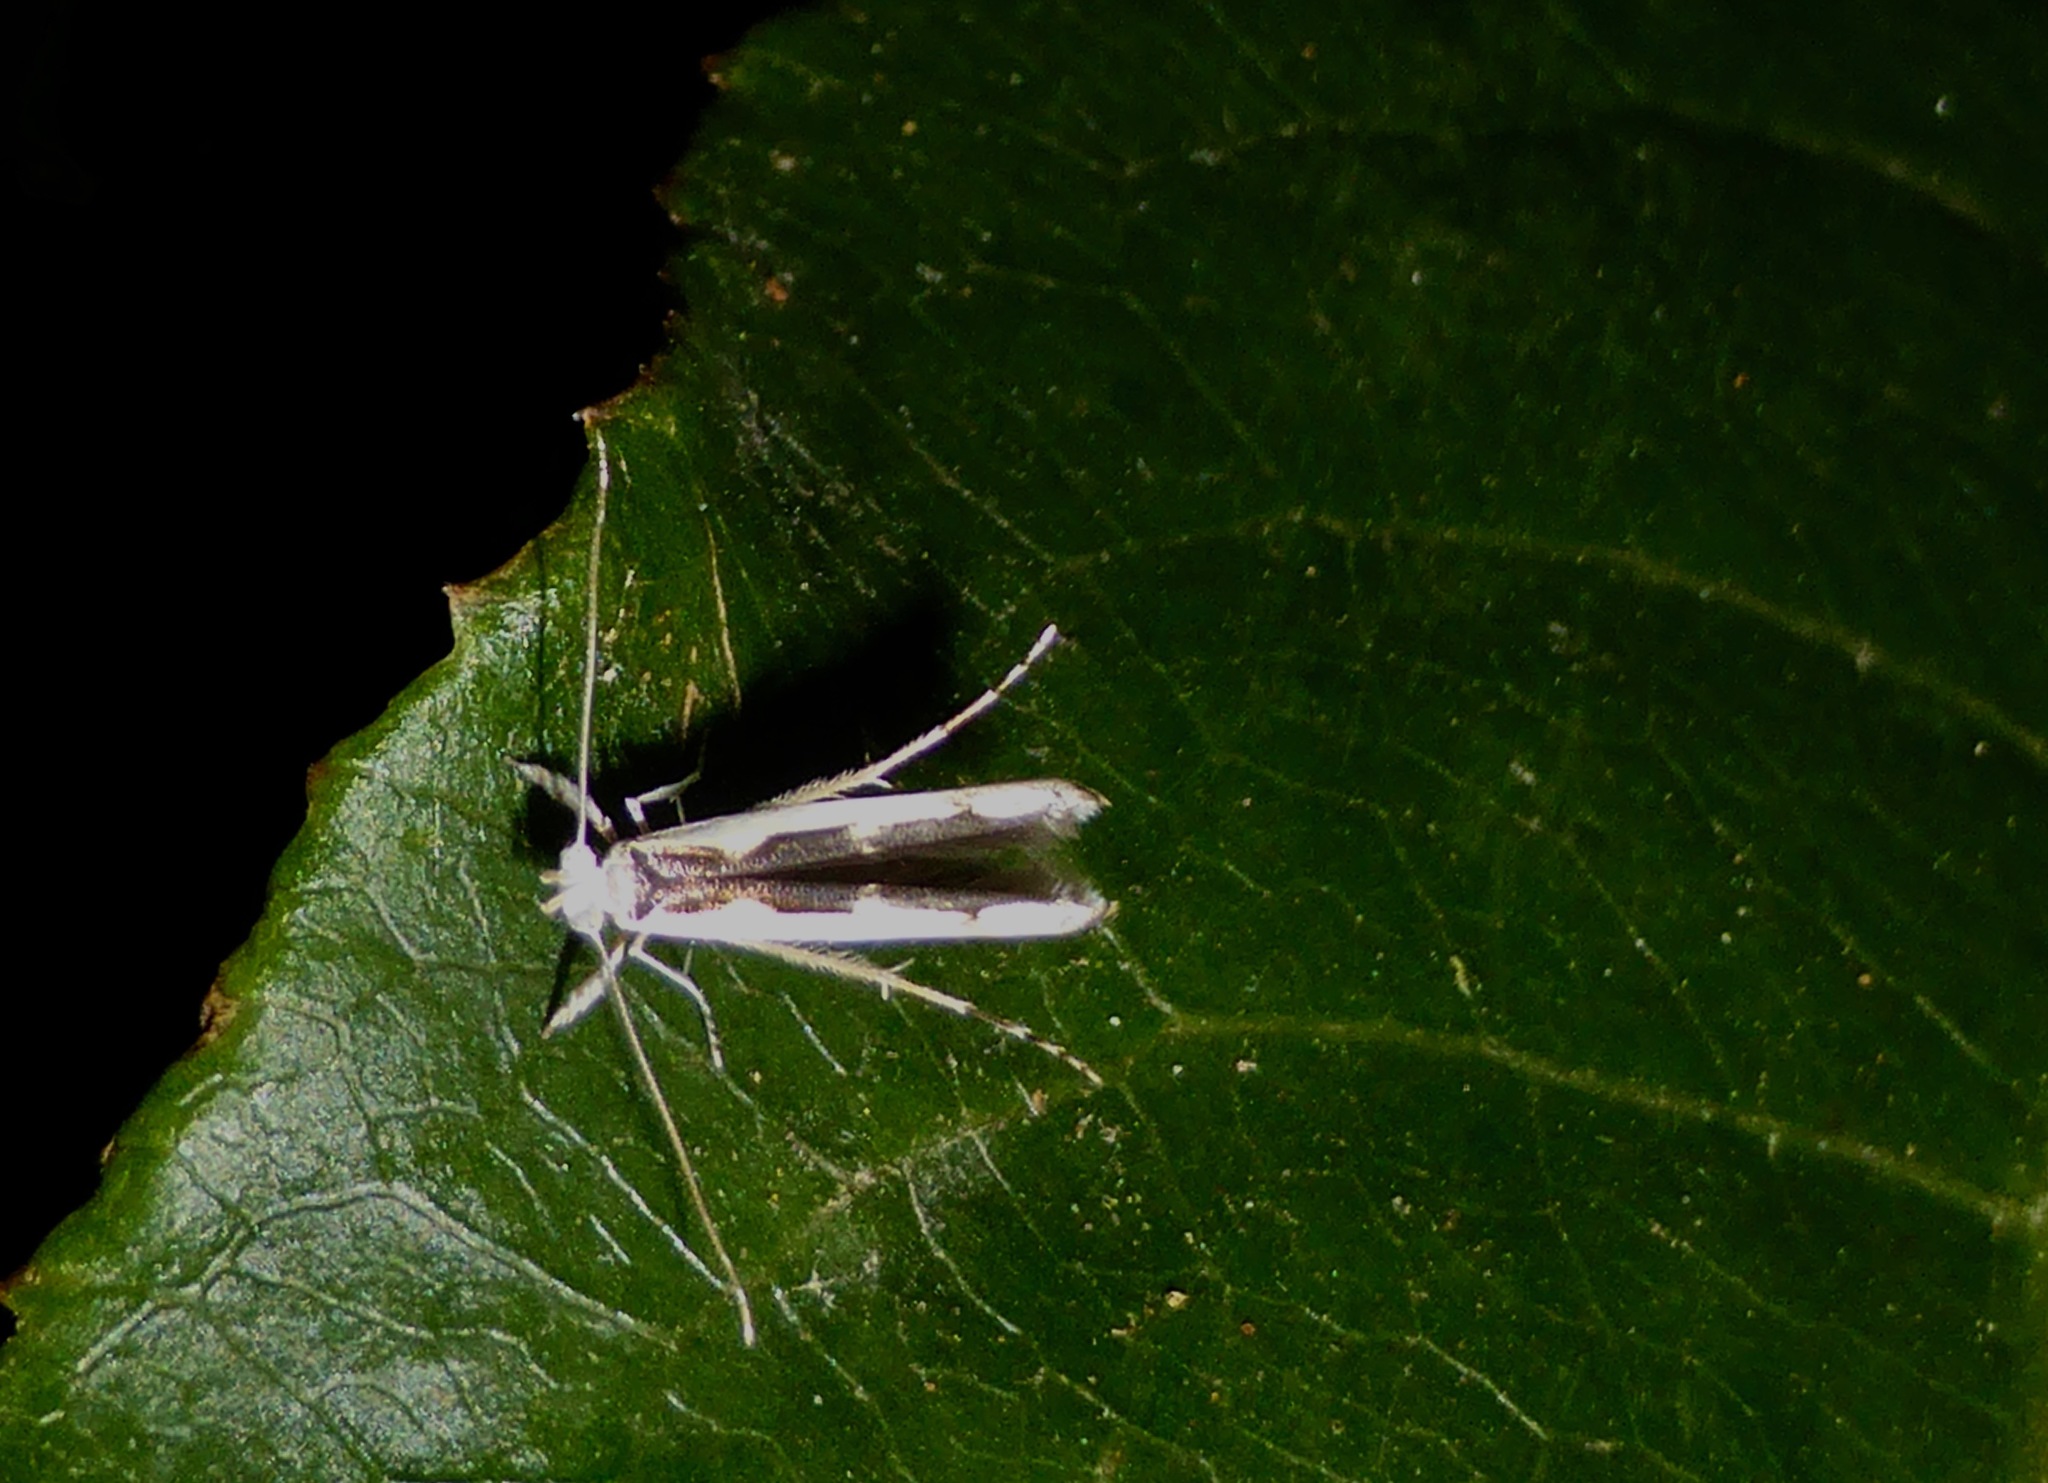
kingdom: Animalia
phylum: Arthropoda
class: Insecta
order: Lepidoptera
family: Roeslerstammiidae
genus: Vanicela
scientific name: Vanicela disjunctella
